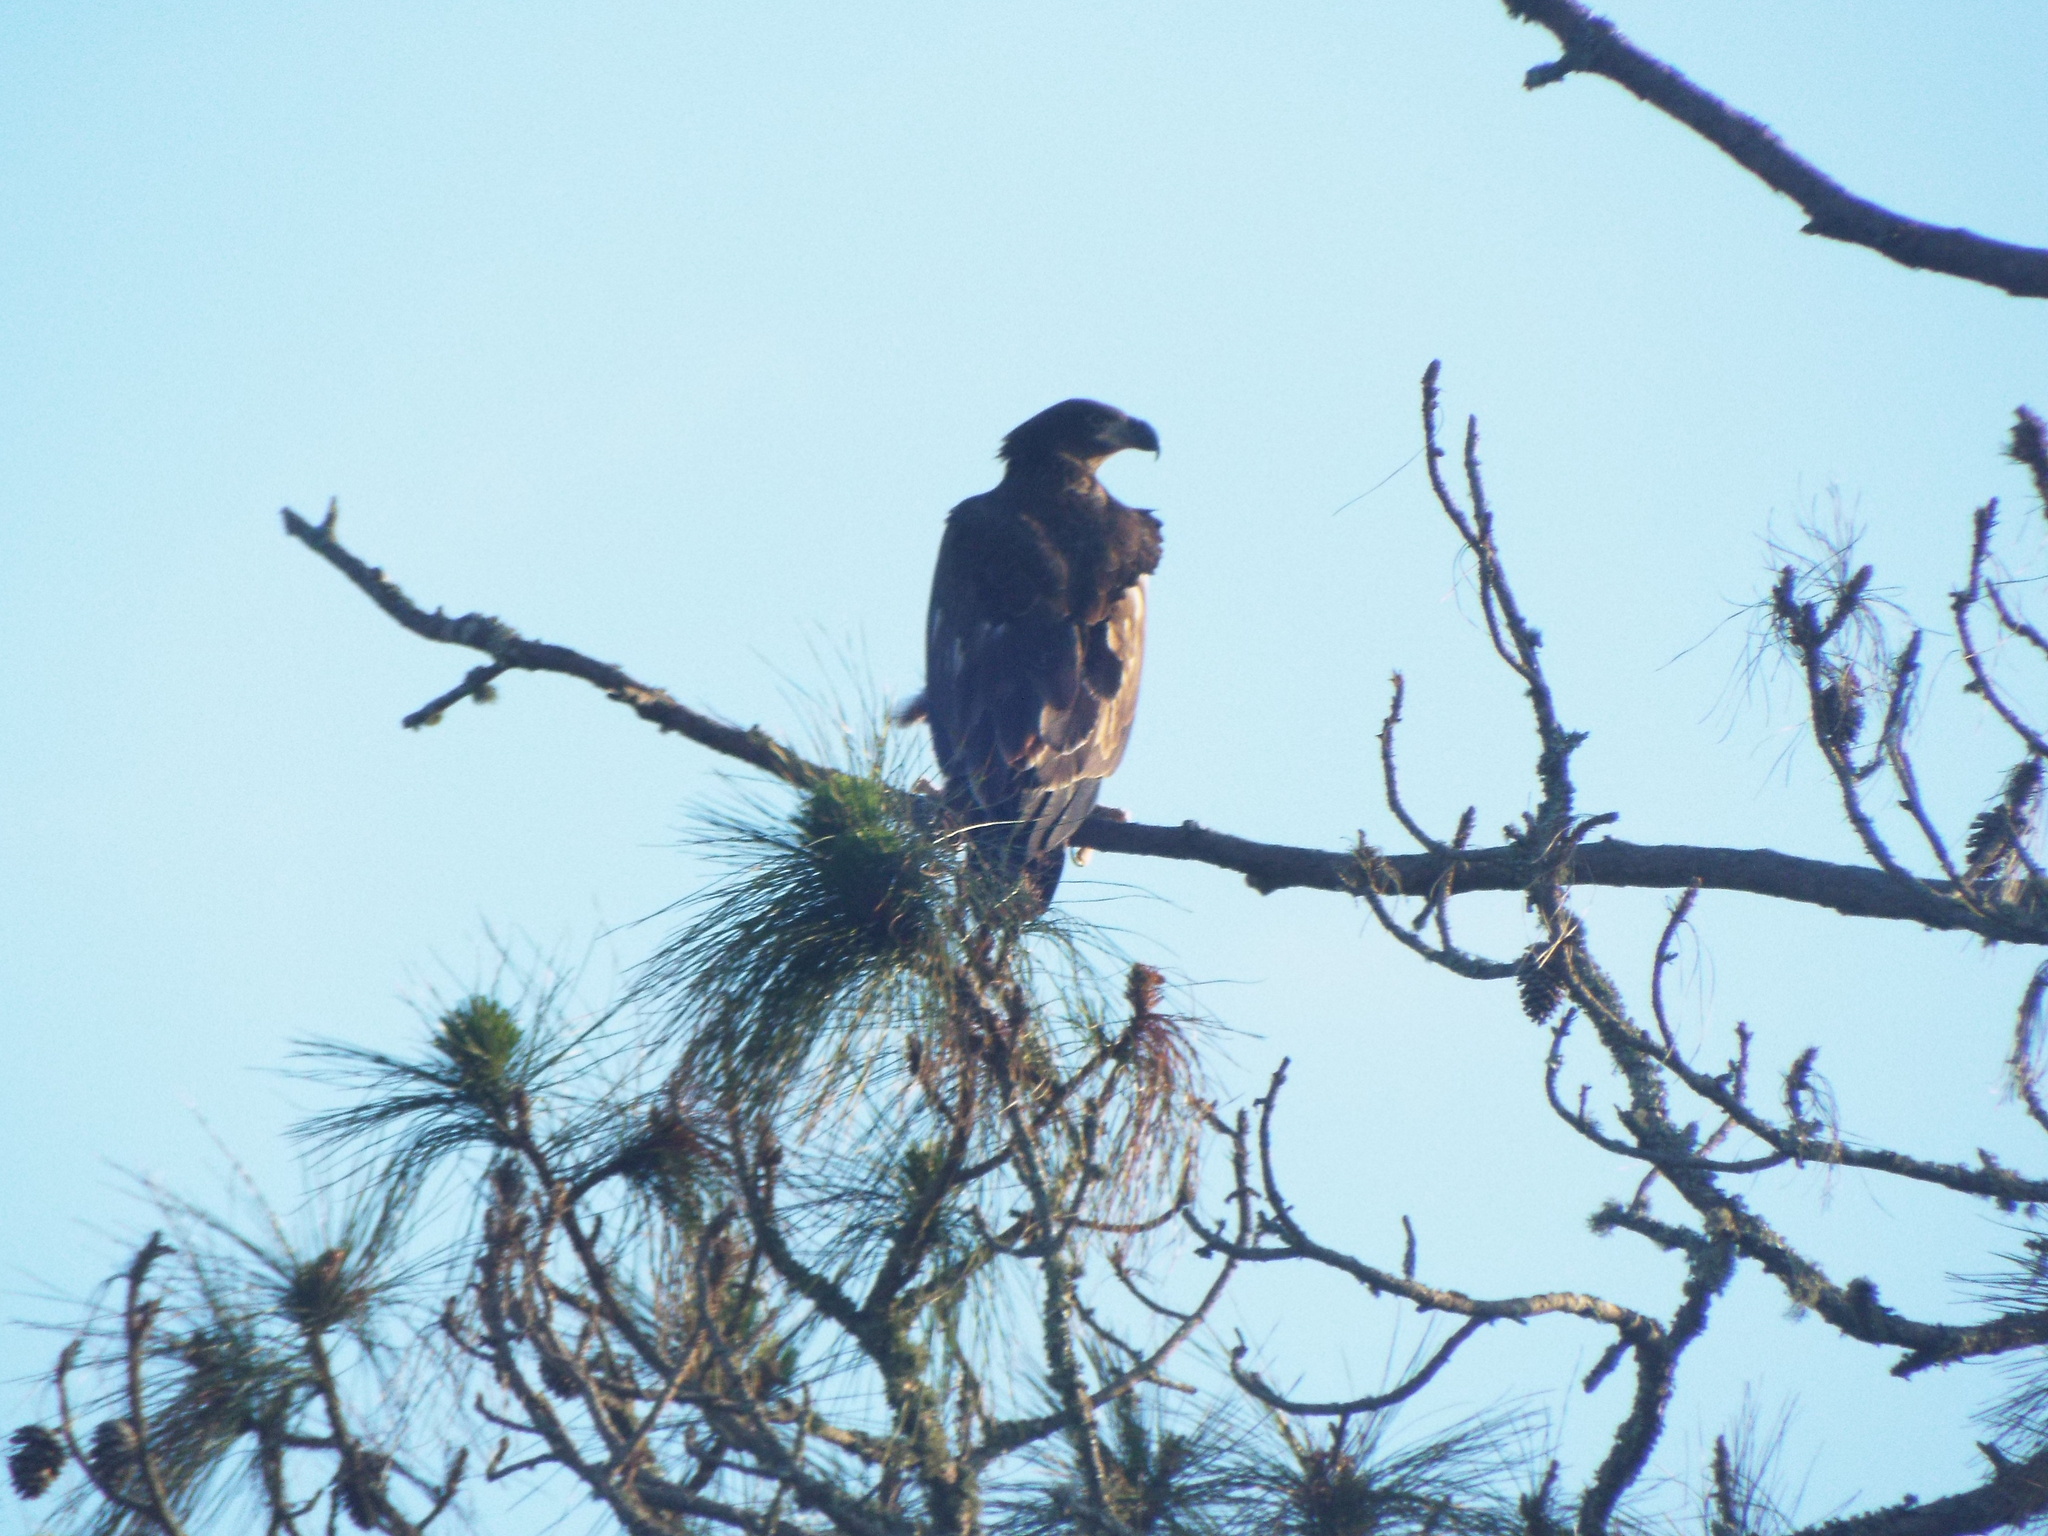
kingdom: Animalia
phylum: Chordata
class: Aves
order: Accipitriformes
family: Accipitridae
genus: Haliaeetus
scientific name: Haliaeetus leucocephalus
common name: Bald eagle
